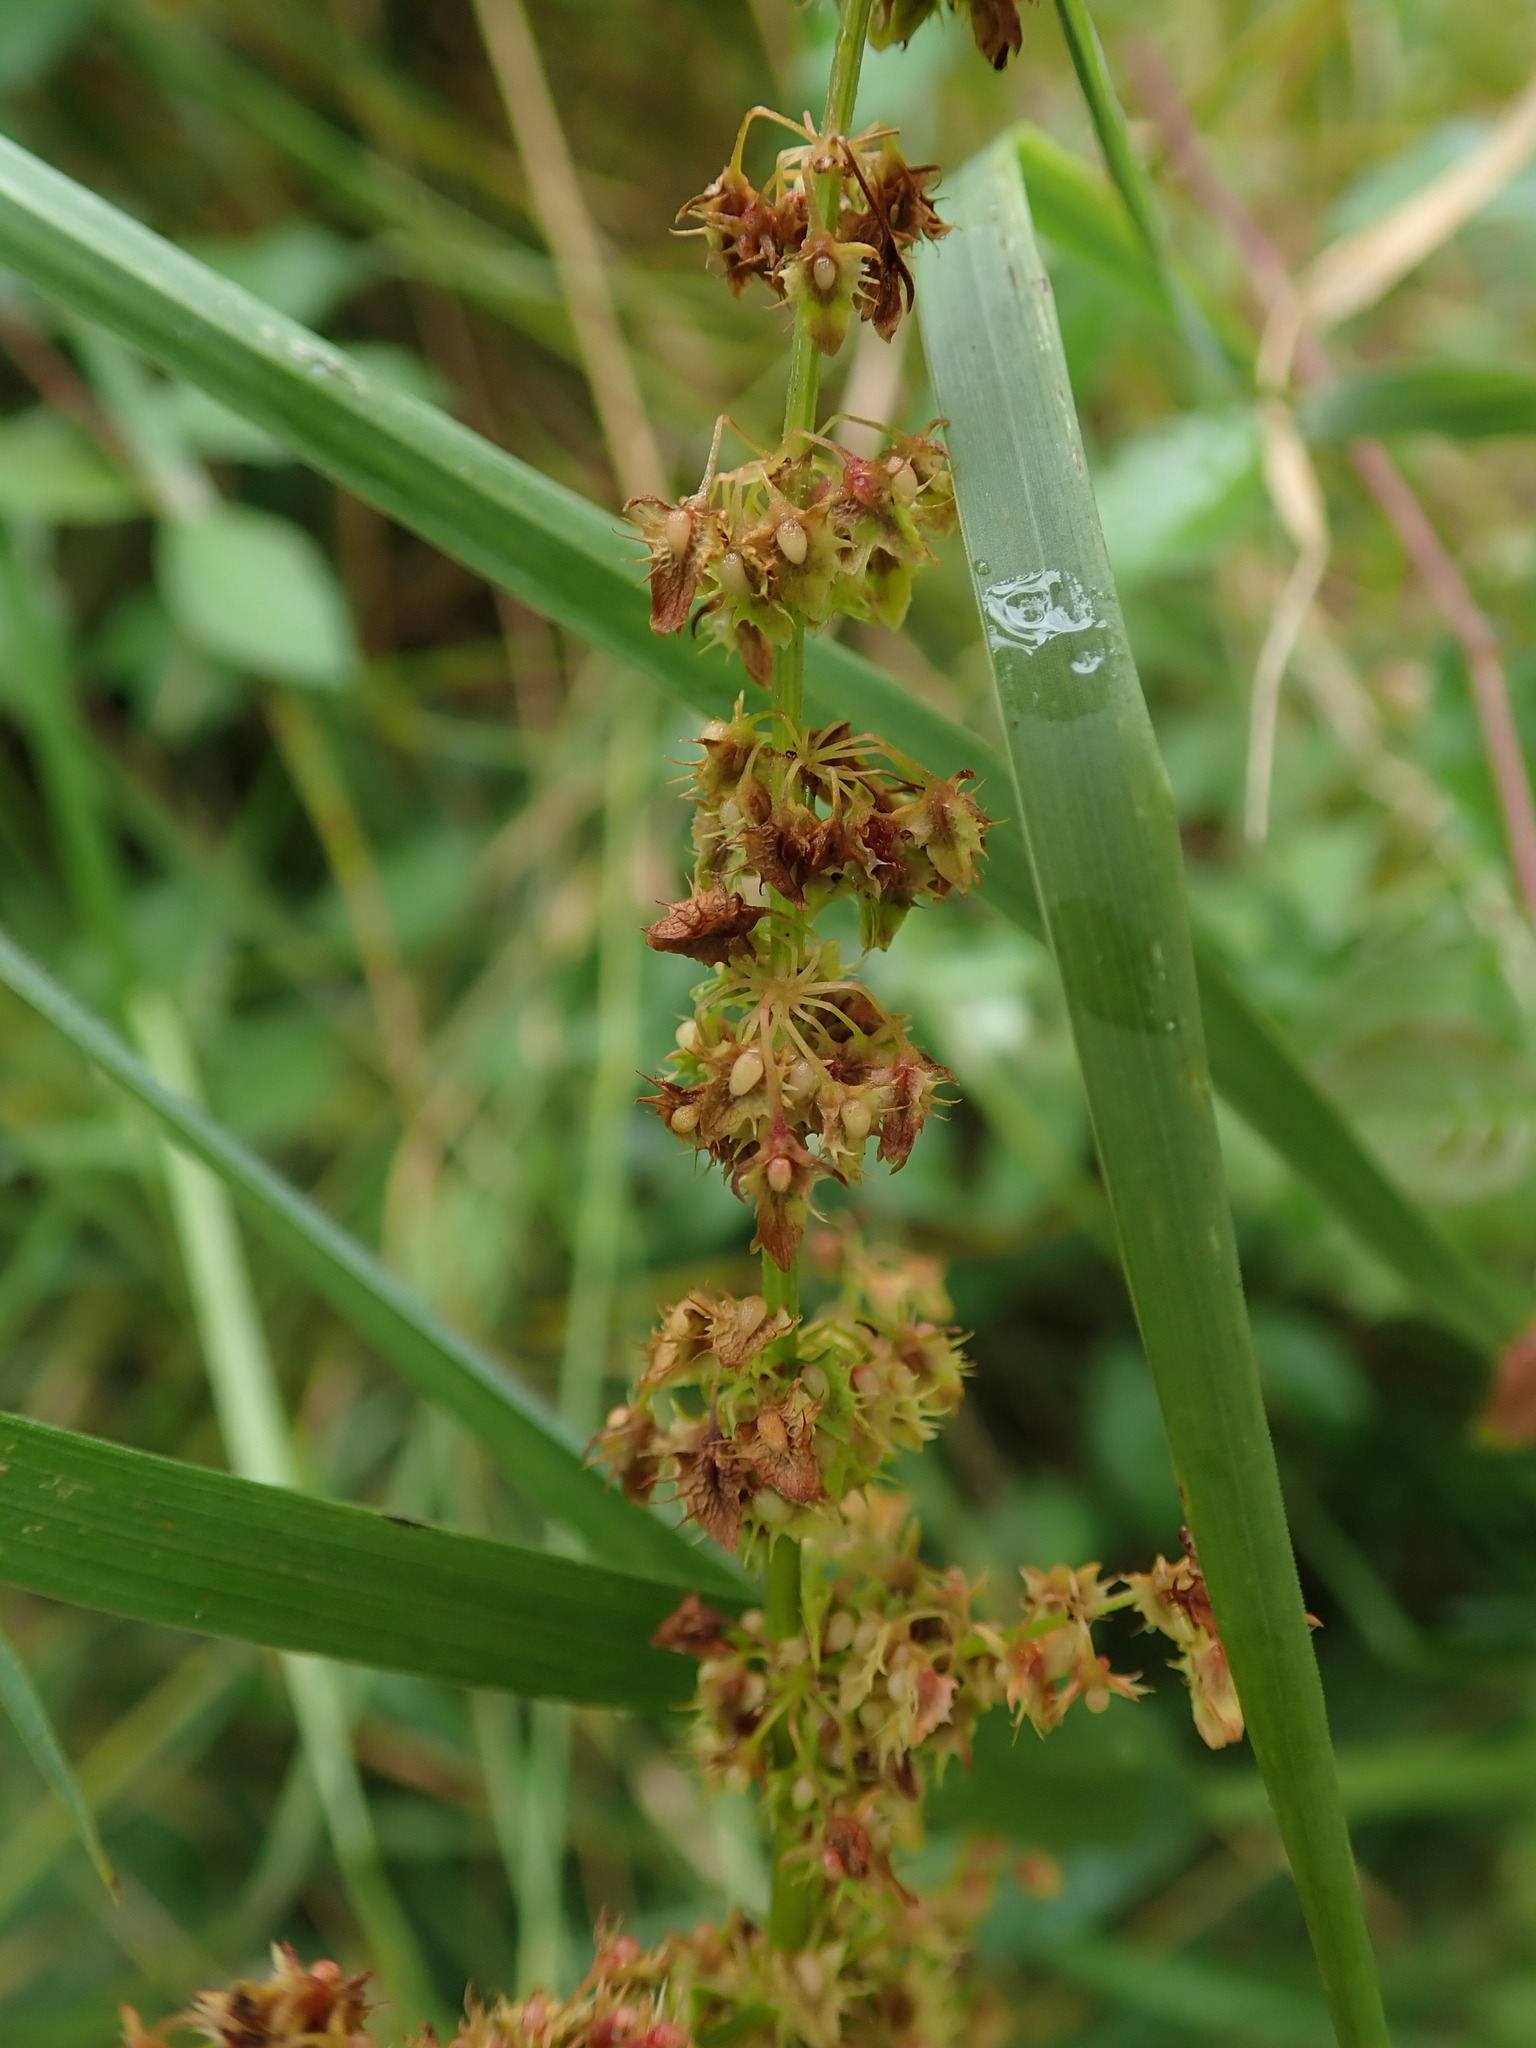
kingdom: Plantae
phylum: Tracheophyta
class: Magnoliopsida
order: Caryophyllales
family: Polygonaceae
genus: Rumex
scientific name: Rumex obtusifolius
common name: Bitter dock
